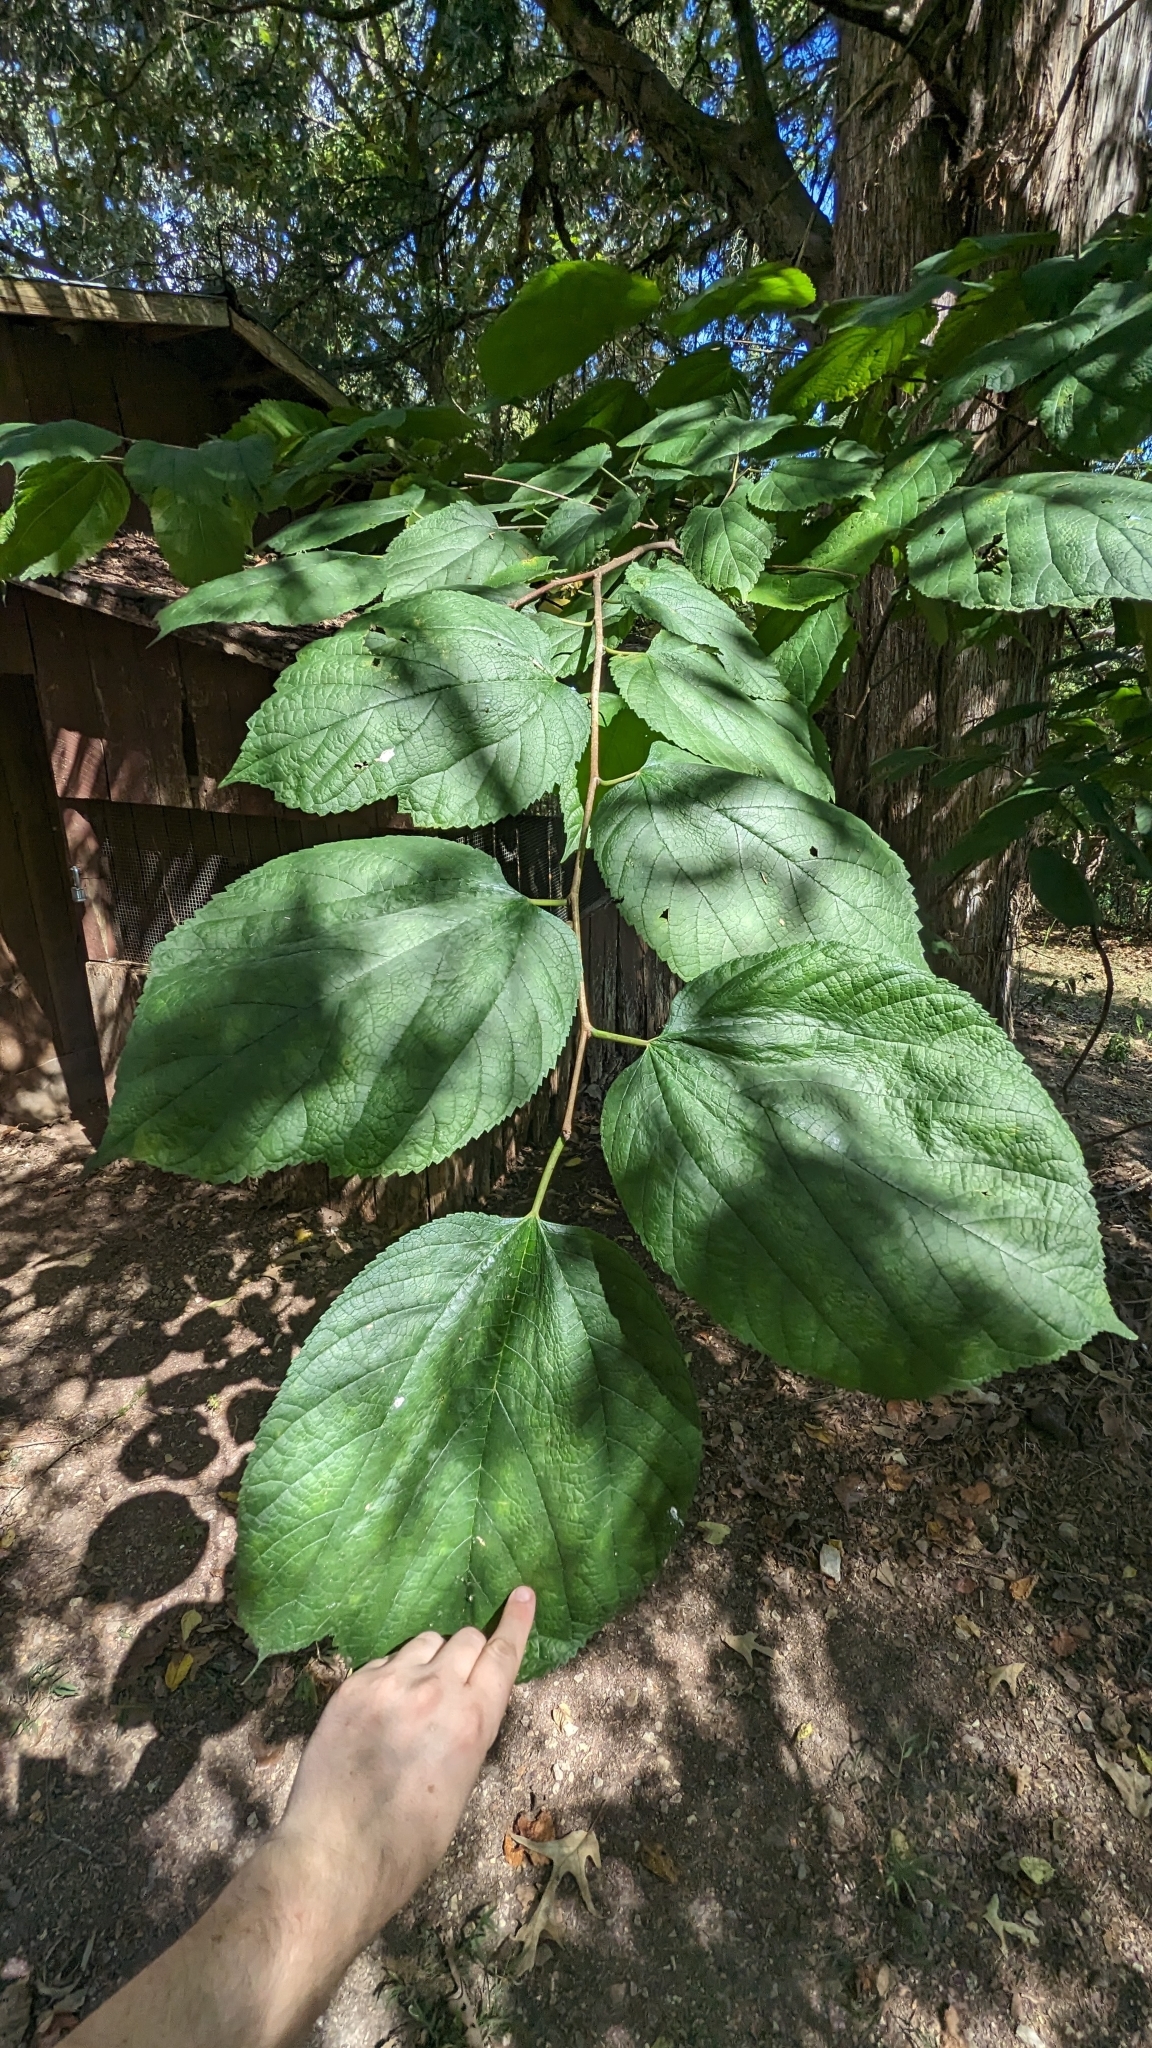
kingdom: Plantae
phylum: Tracheophyta
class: Magnoliopsida
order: Rosales
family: Moraceae
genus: Morus
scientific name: Morus rubra
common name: Red mulberry
